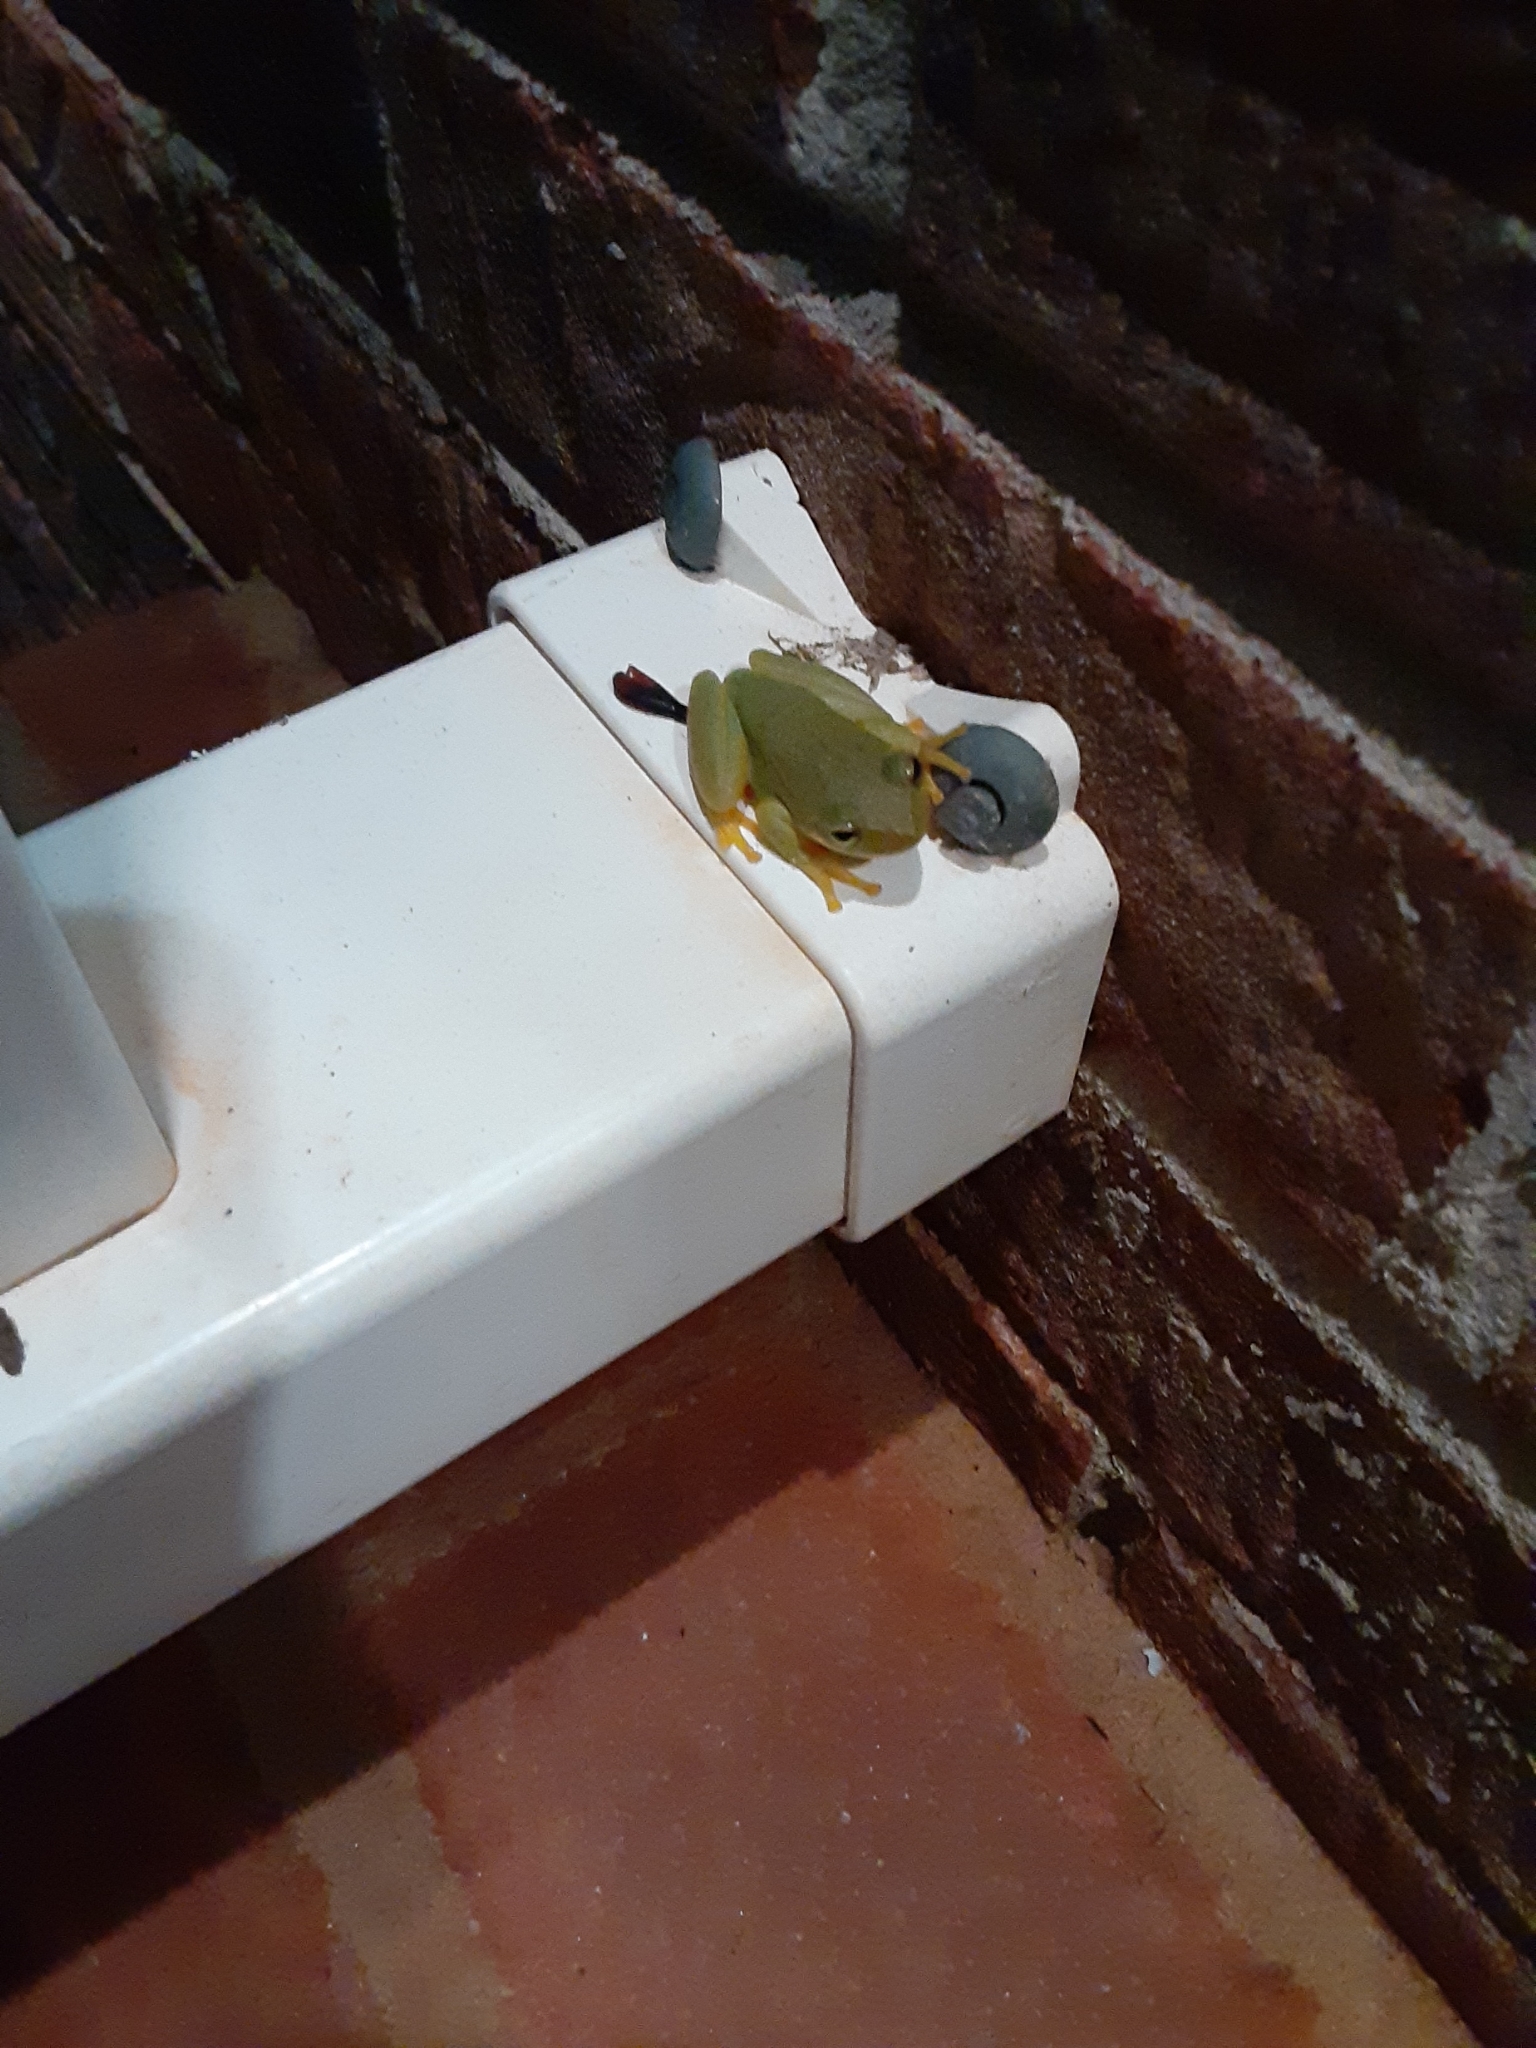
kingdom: Animalia
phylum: Chordata
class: Amphibia
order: Anura
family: Hylidae
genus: Dryophytes
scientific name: Dryophytes squirellus
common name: Squirrel treefrog
